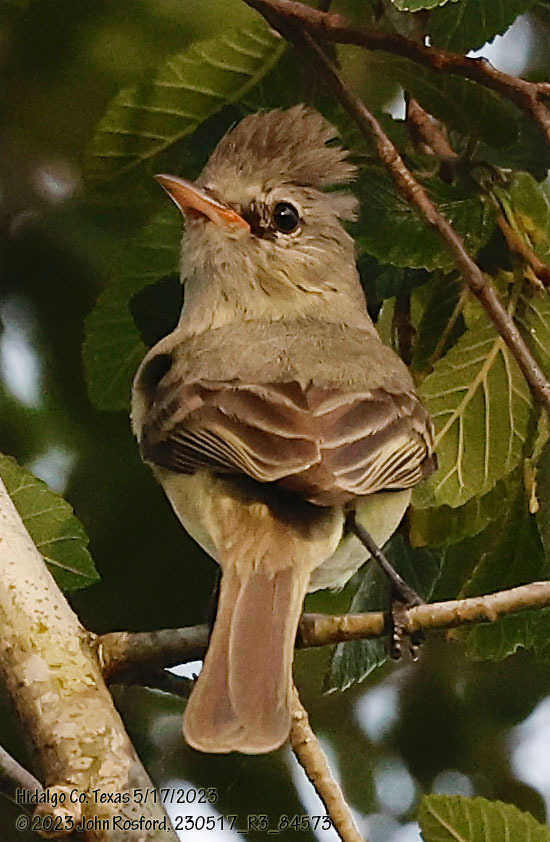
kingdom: Animalia
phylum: Chordata
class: Aves
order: Passeriformes
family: Tyrannidae
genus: Camptostoma
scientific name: Camptostoma imberbe
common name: Northern beardless-tyrannulet
